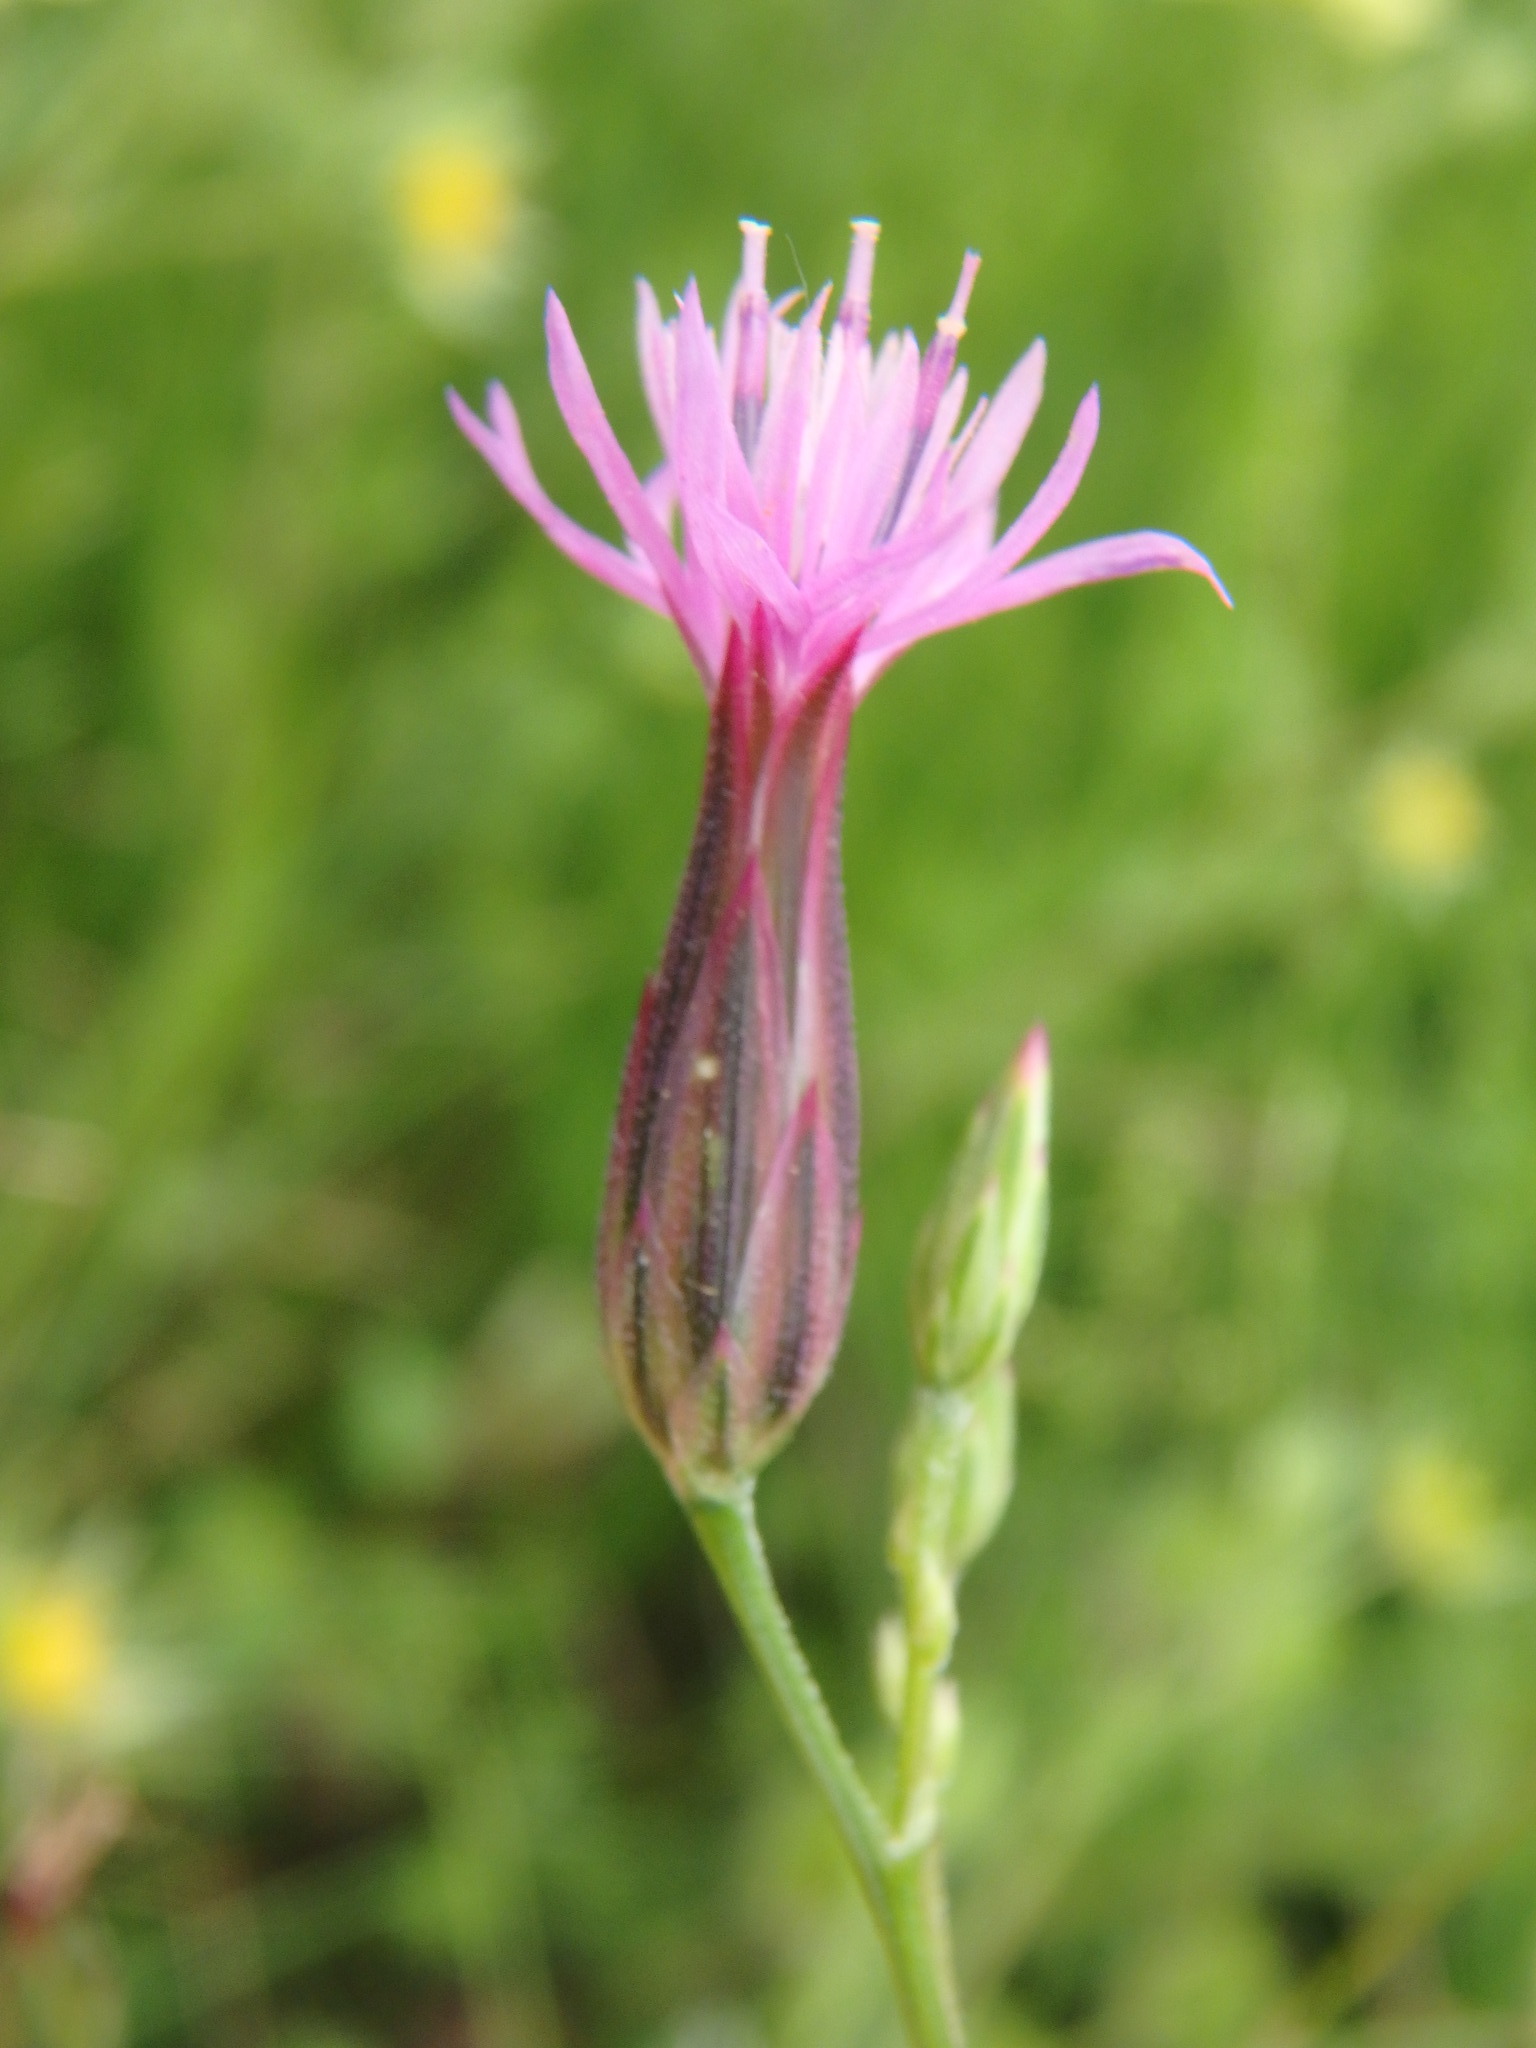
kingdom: Plantae
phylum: Tracheophyta
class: Magnoliopsida
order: Asterales
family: Asteraceae
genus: Crupina
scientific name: Crupina vulgaris
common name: Common crupina
